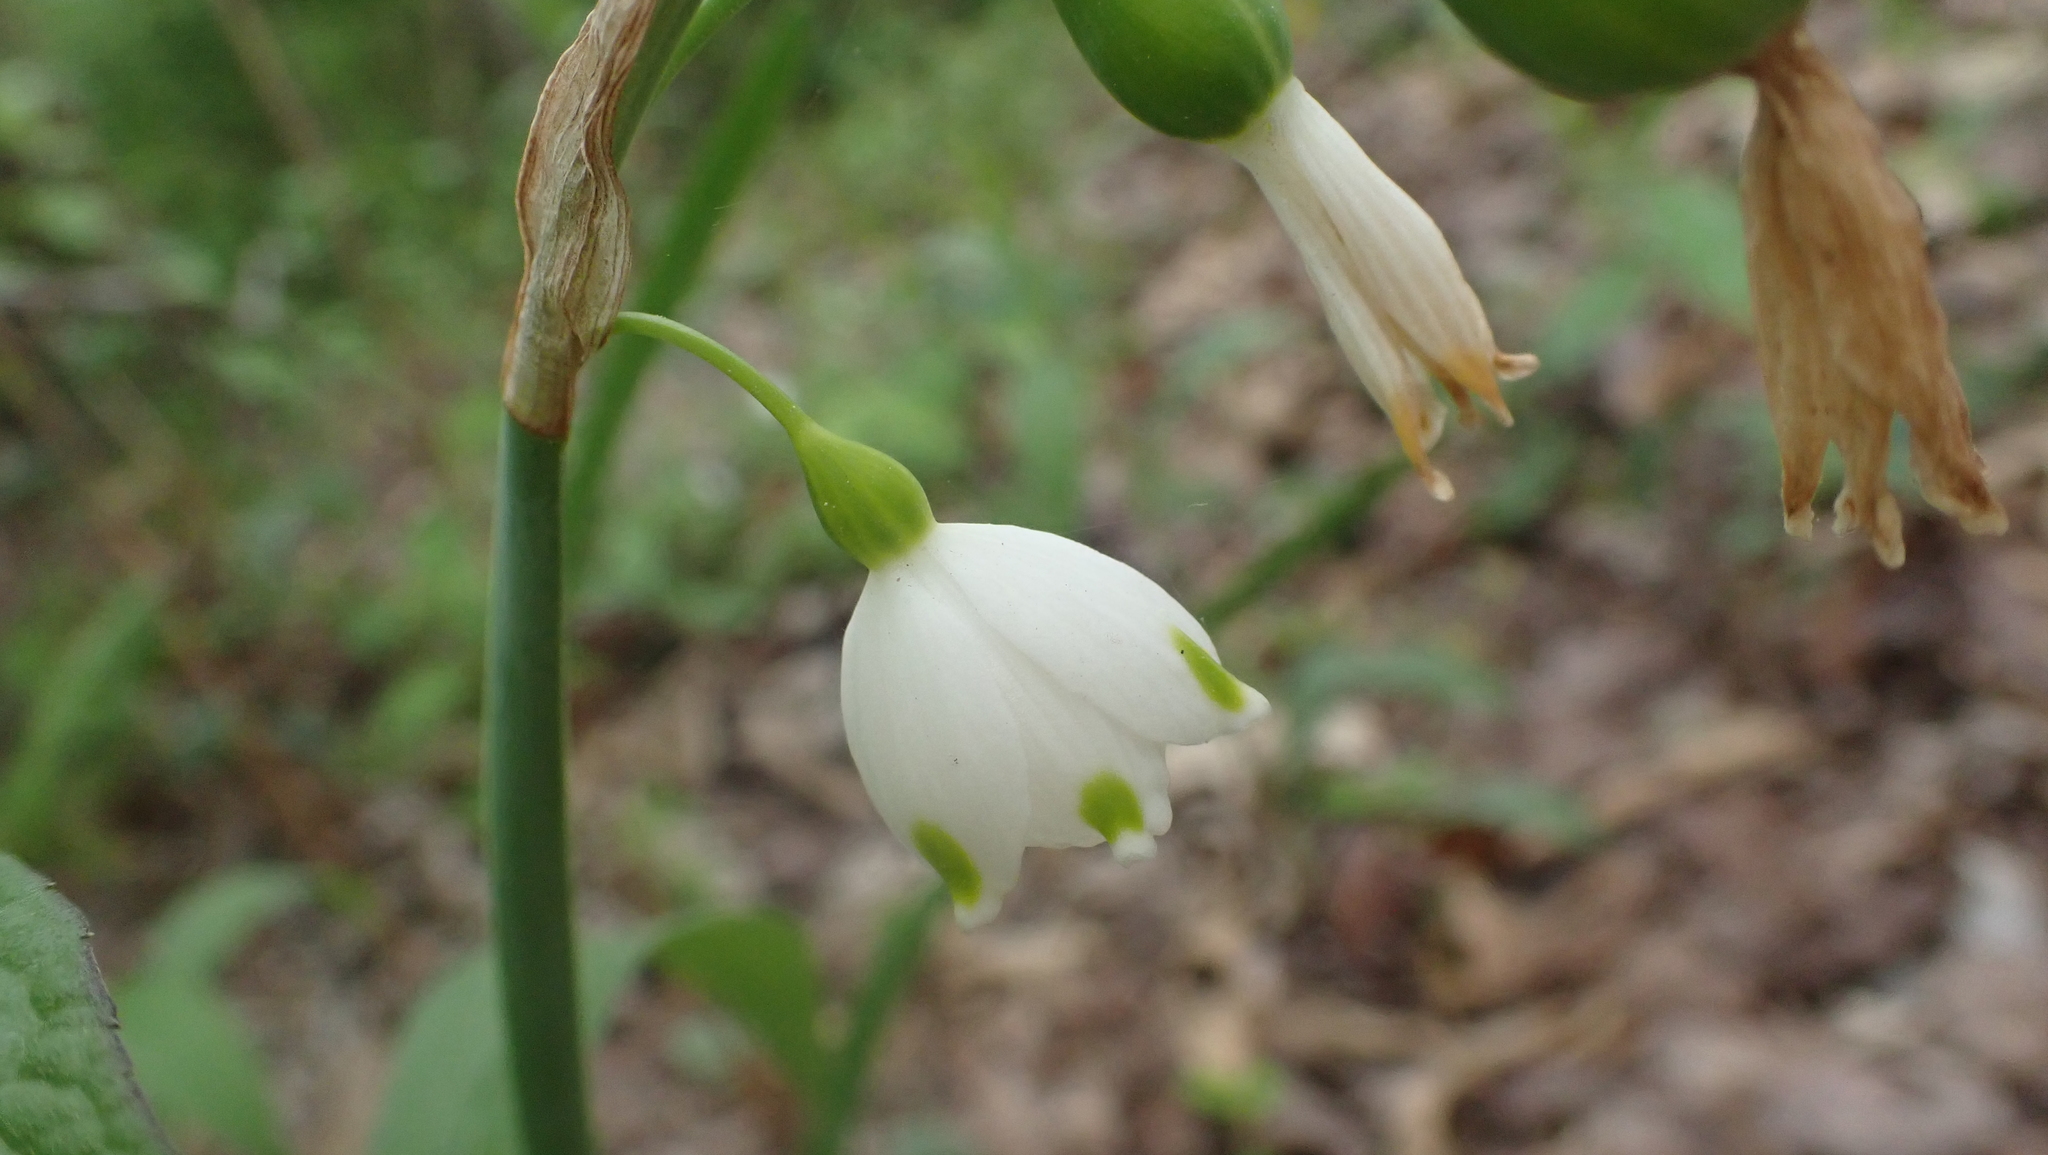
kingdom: Plantae
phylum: Tracheophyta
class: Liliopsida
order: Asparagales
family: Amaryllidaceae
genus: Leucojum
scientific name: Leucojum aestivum
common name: Summer snowflake
